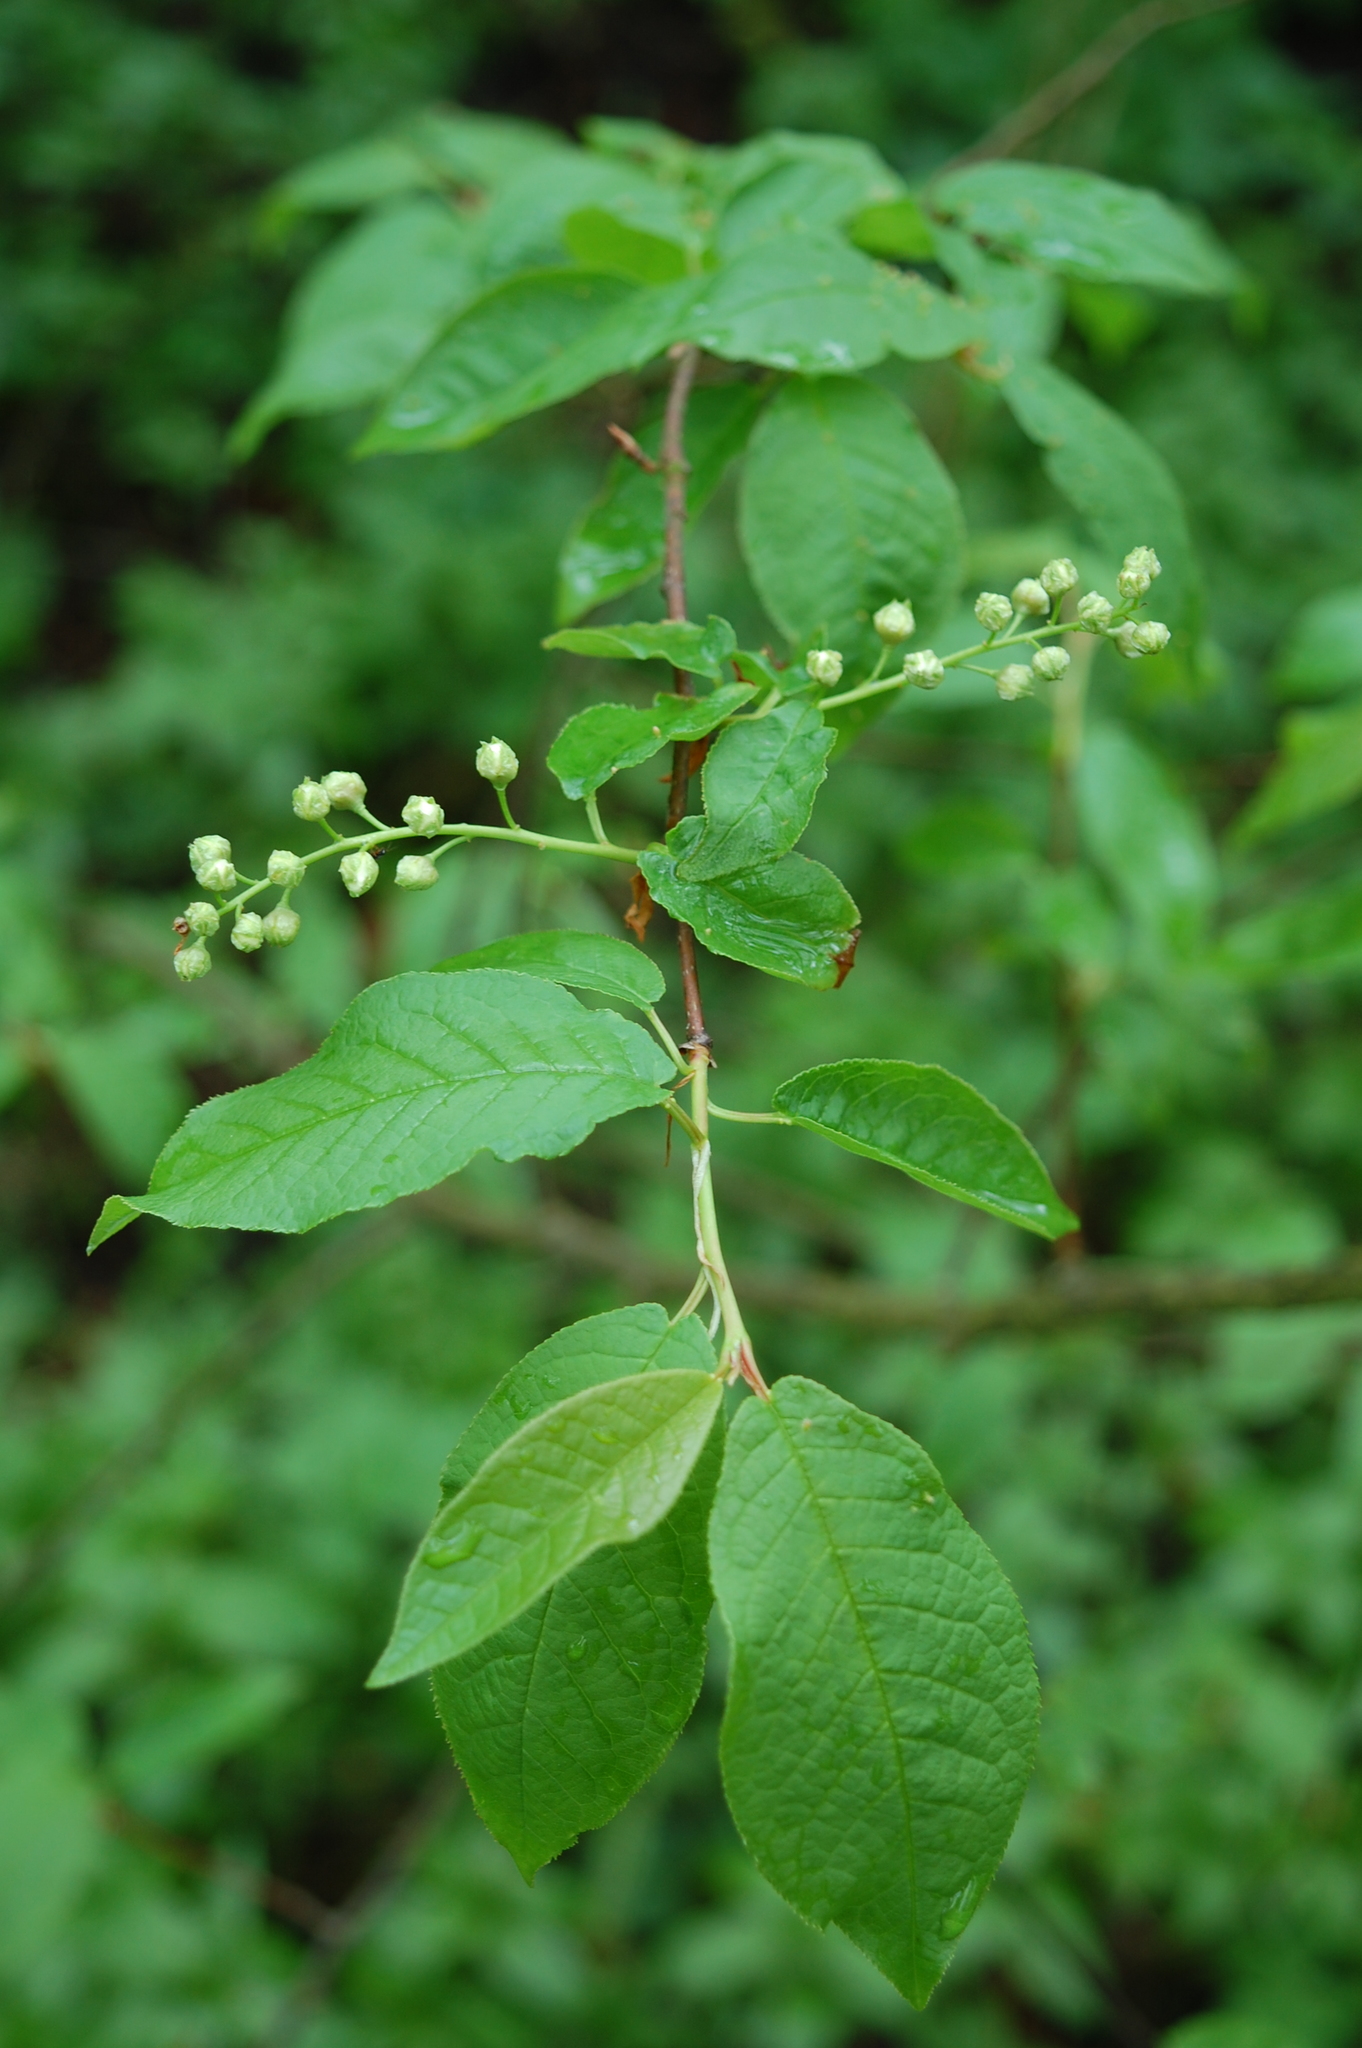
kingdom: Plantae
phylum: Tracheophyta
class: Magnoliopsida
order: Rosales
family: Rosaceae
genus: Prunus
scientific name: Prunus padus
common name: Bird cherry
